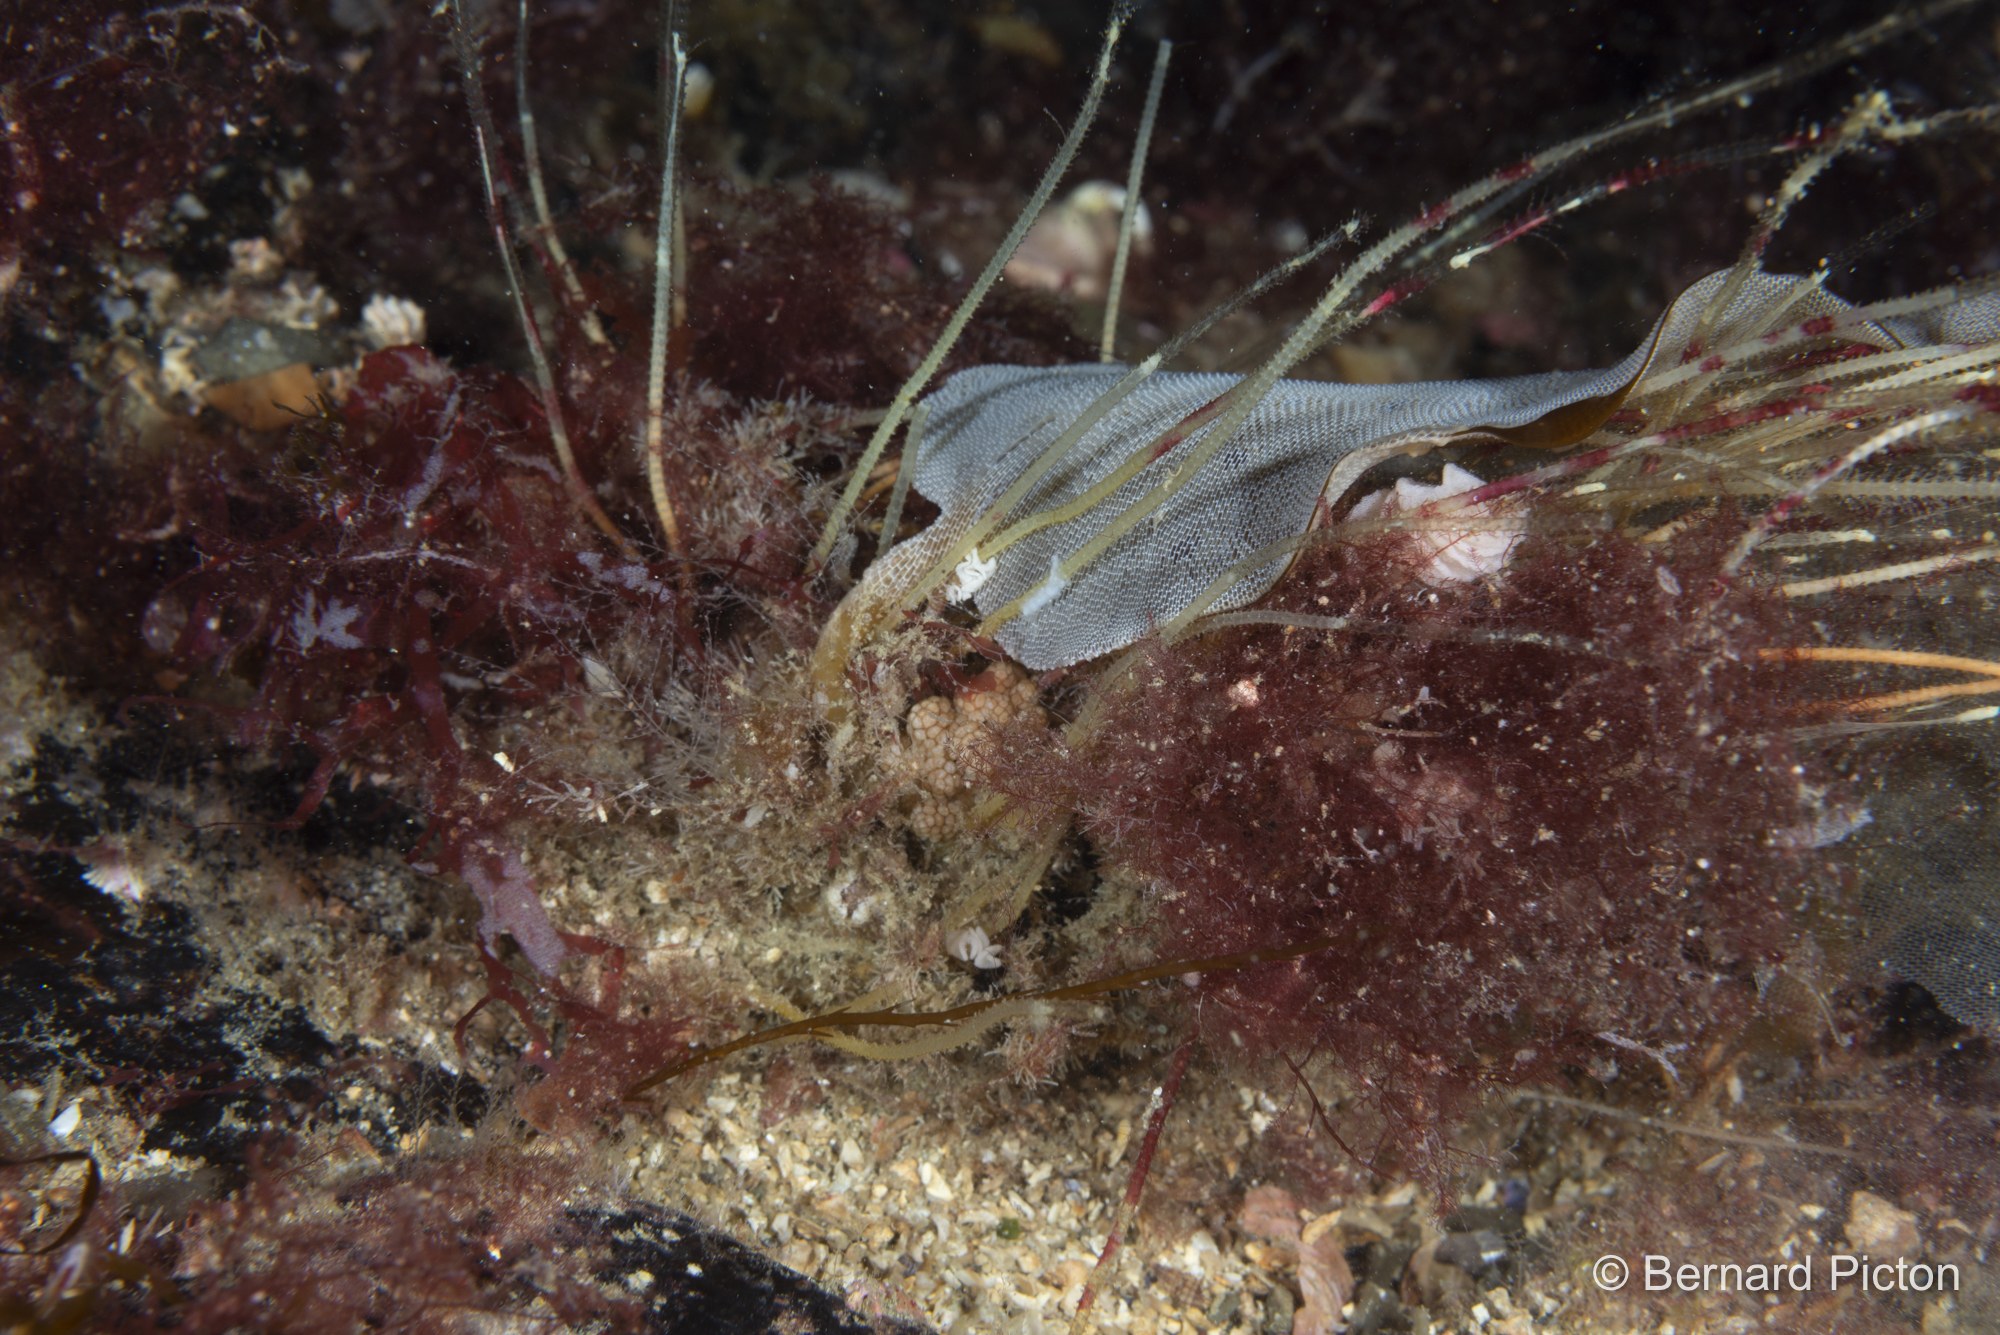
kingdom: Animalia
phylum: Mollusca
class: Gastropoda
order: Nudibranchia
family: Dotidae
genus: Doto
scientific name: Doto fragilis
